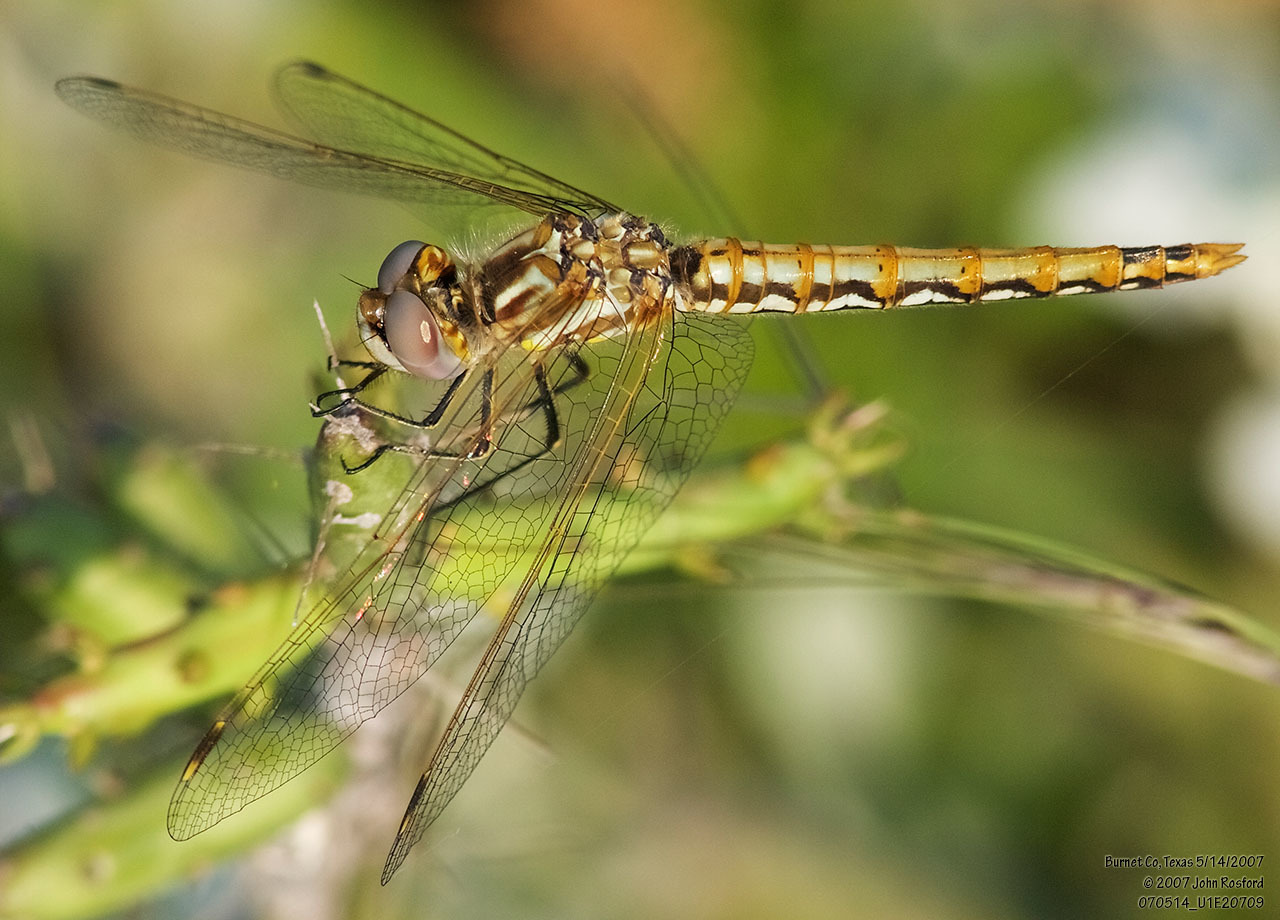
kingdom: Animalia
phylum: Arthropoda
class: Insecta
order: Odonata
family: Libellulidae
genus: Sympetrum
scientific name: Sympetrum corruptum
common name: Variegated meadowhawk
